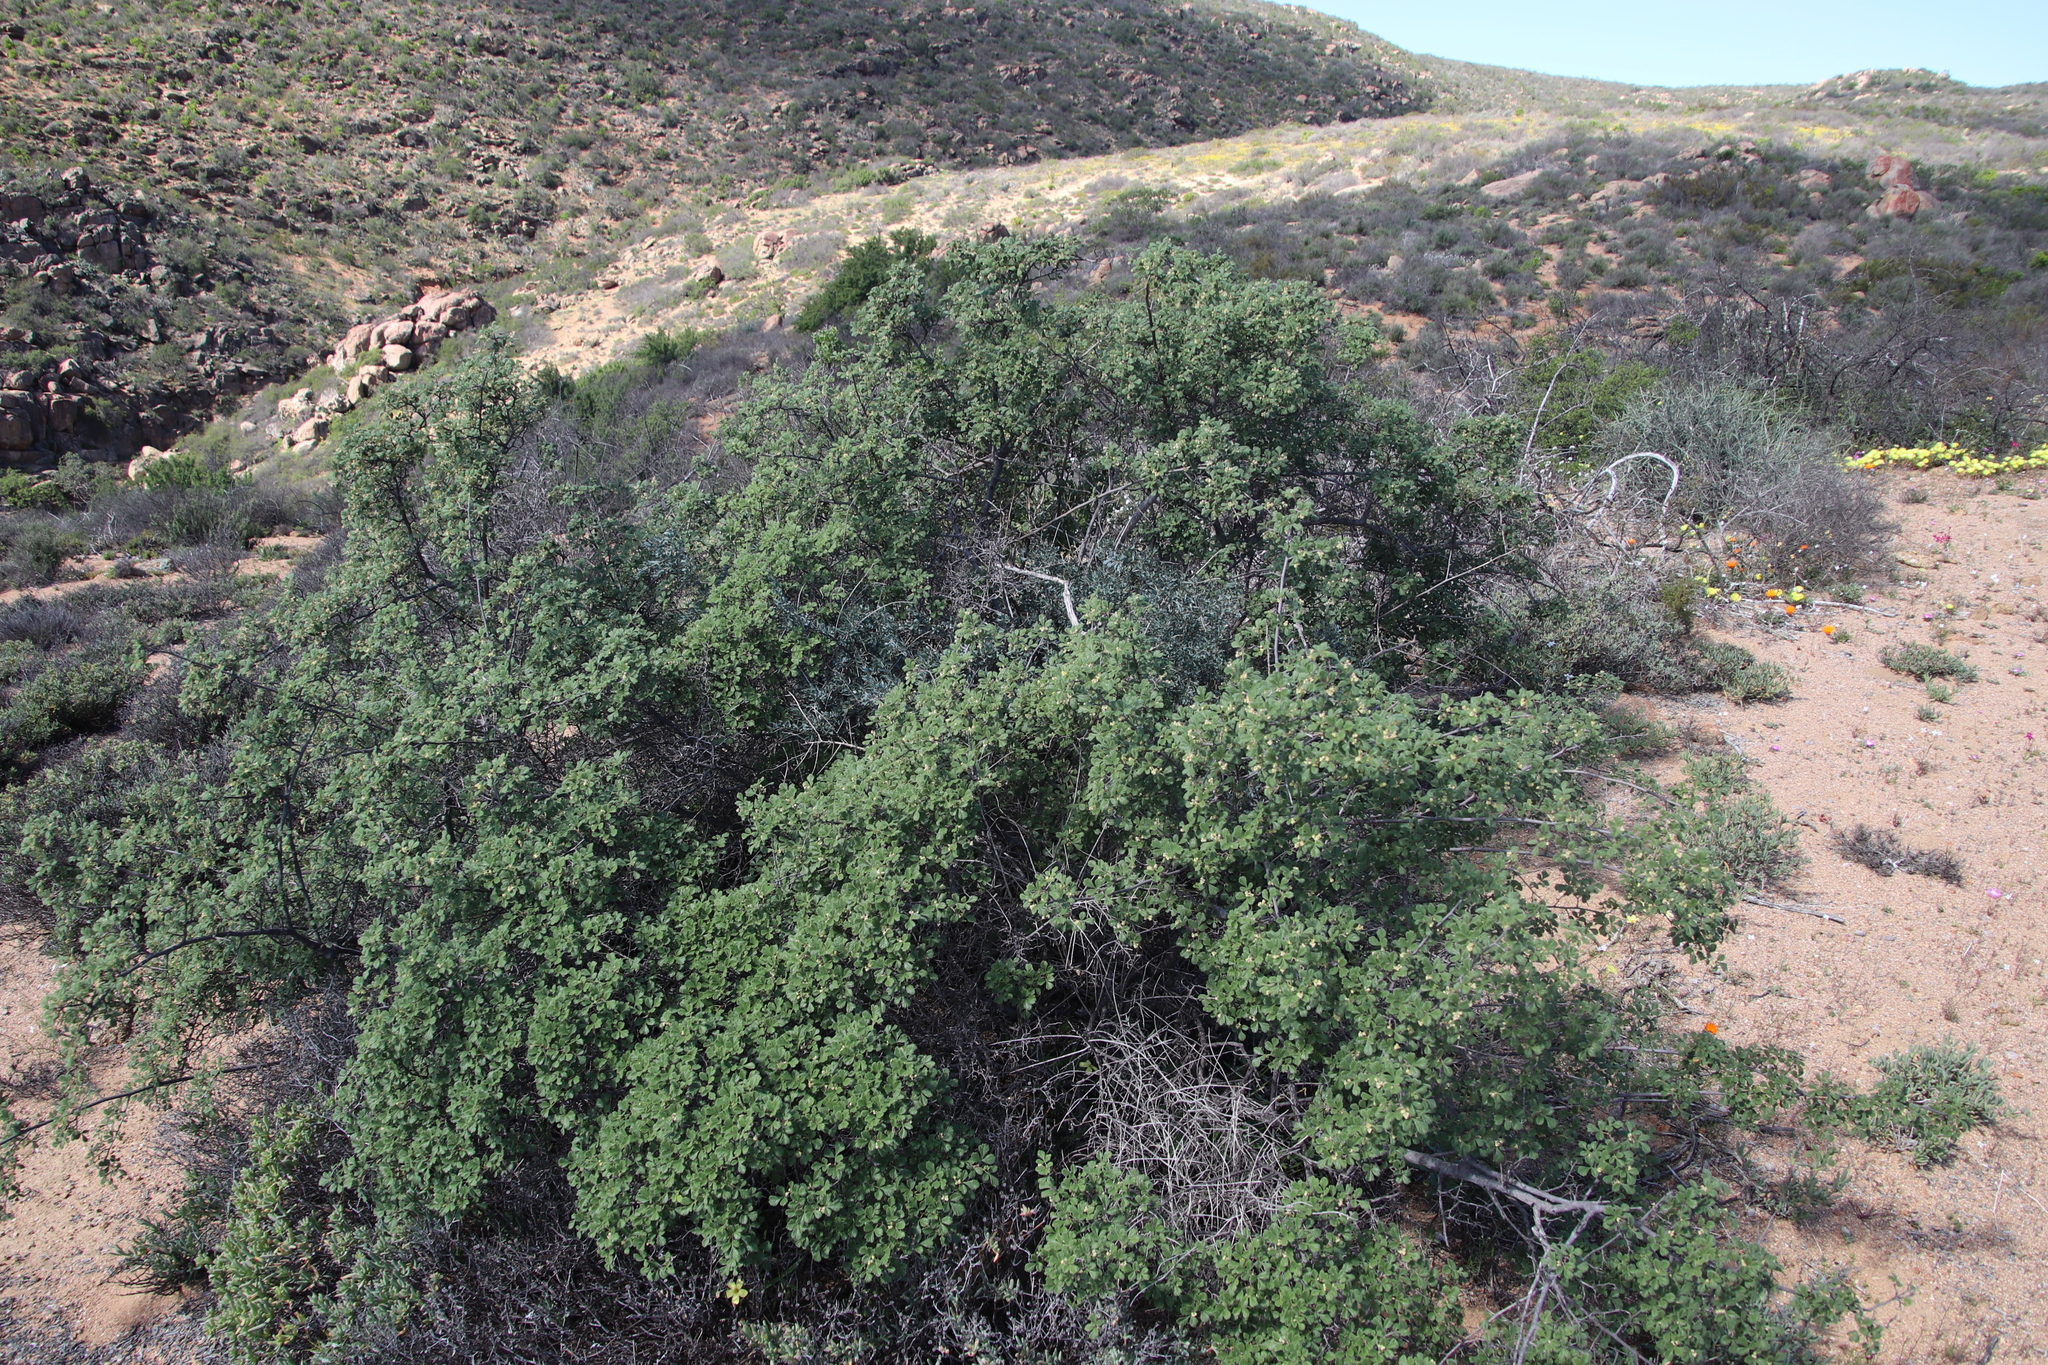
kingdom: Plantae
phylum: Tracheophyta
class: Magnoliopsida
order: Sapindales
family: Anacardiaceae
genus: Searsia
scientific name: Searsia incisa
